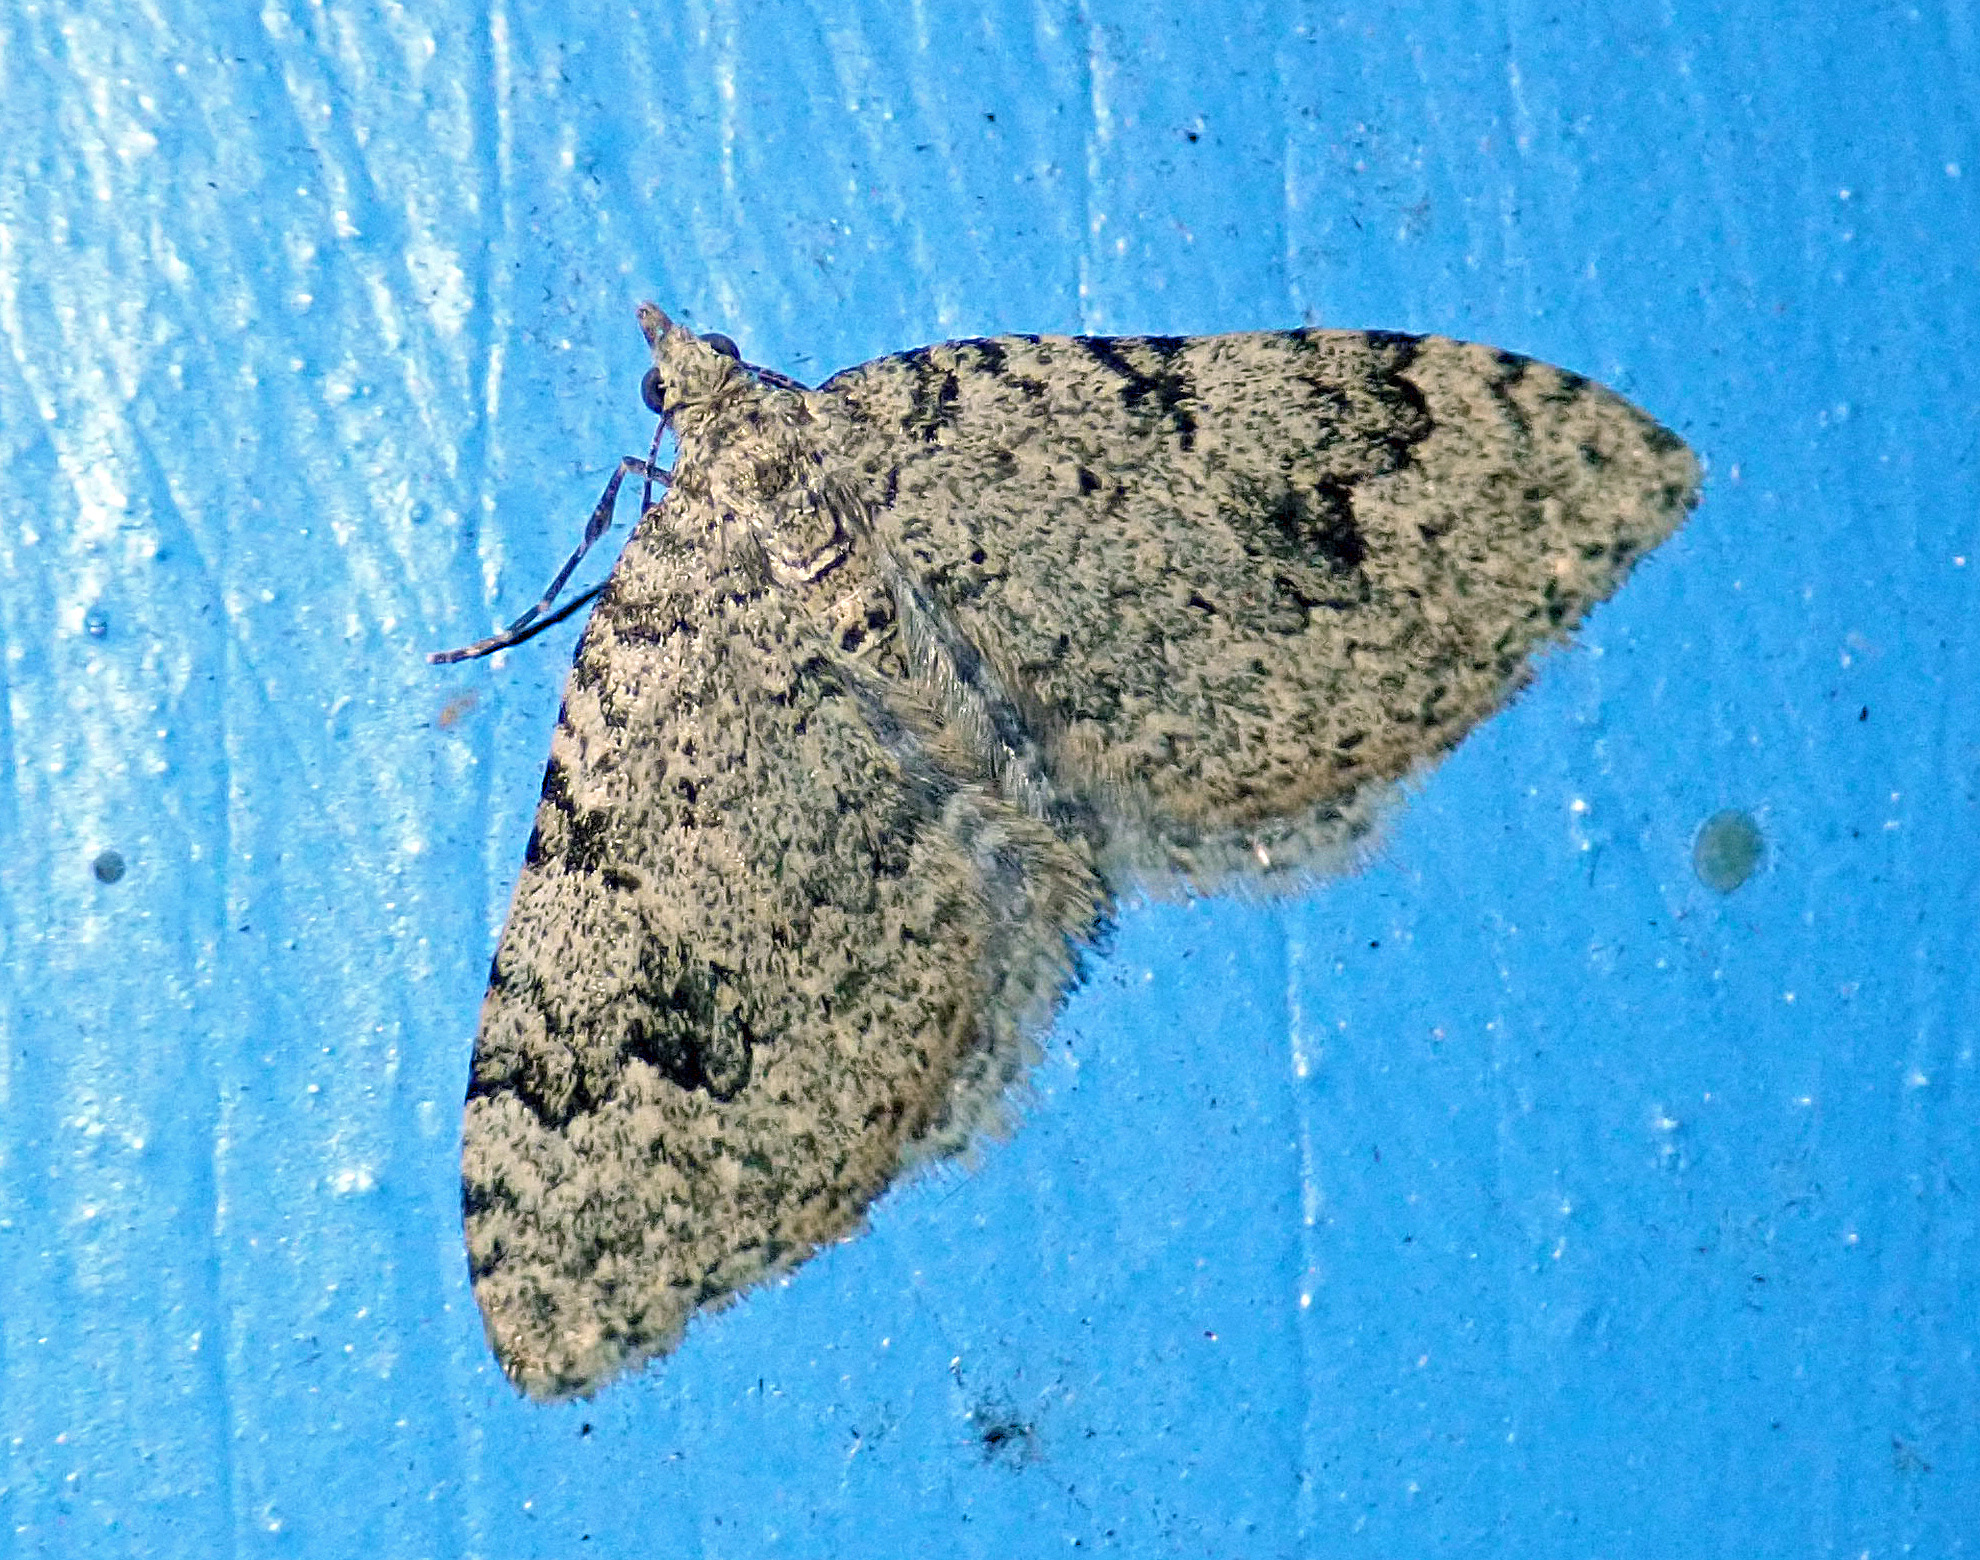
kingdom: Animalia
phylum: Arthropoda
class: Insecta
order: Lepidoptera
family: Geometridae
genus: Helastia
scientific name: Helastia cinerearia
